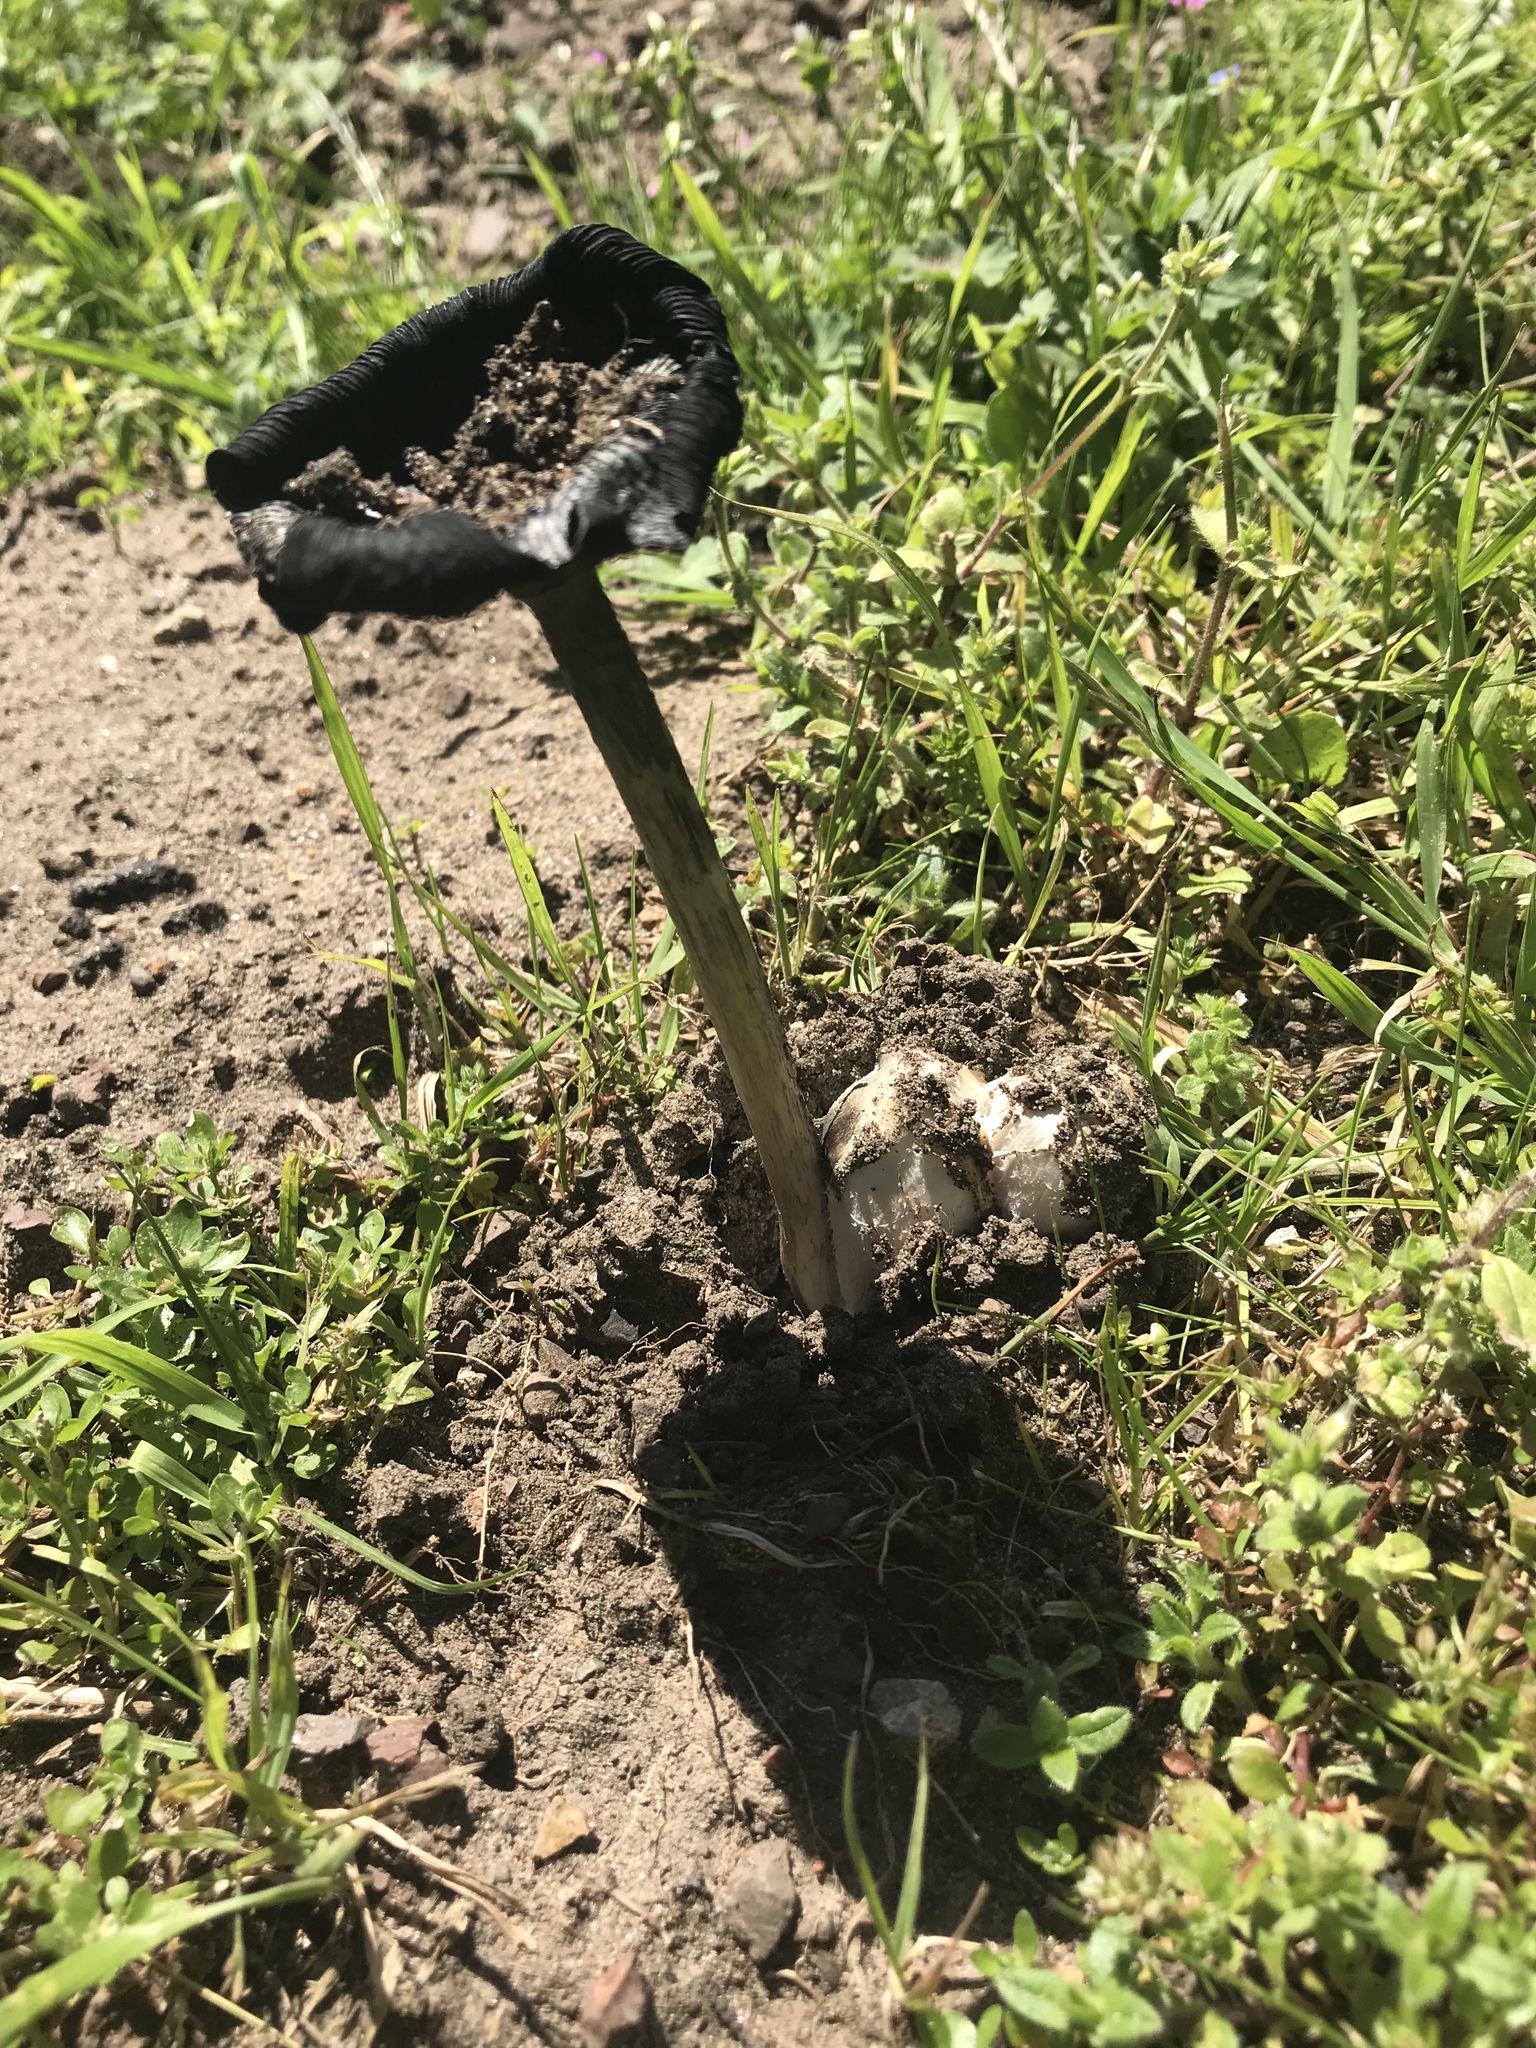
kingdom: Fungi
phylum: Basidiomycota
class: Agaricomycetes
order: Agaricales
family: Agaricaceae
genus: Coprinus
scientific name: Coprinus calyptratus
